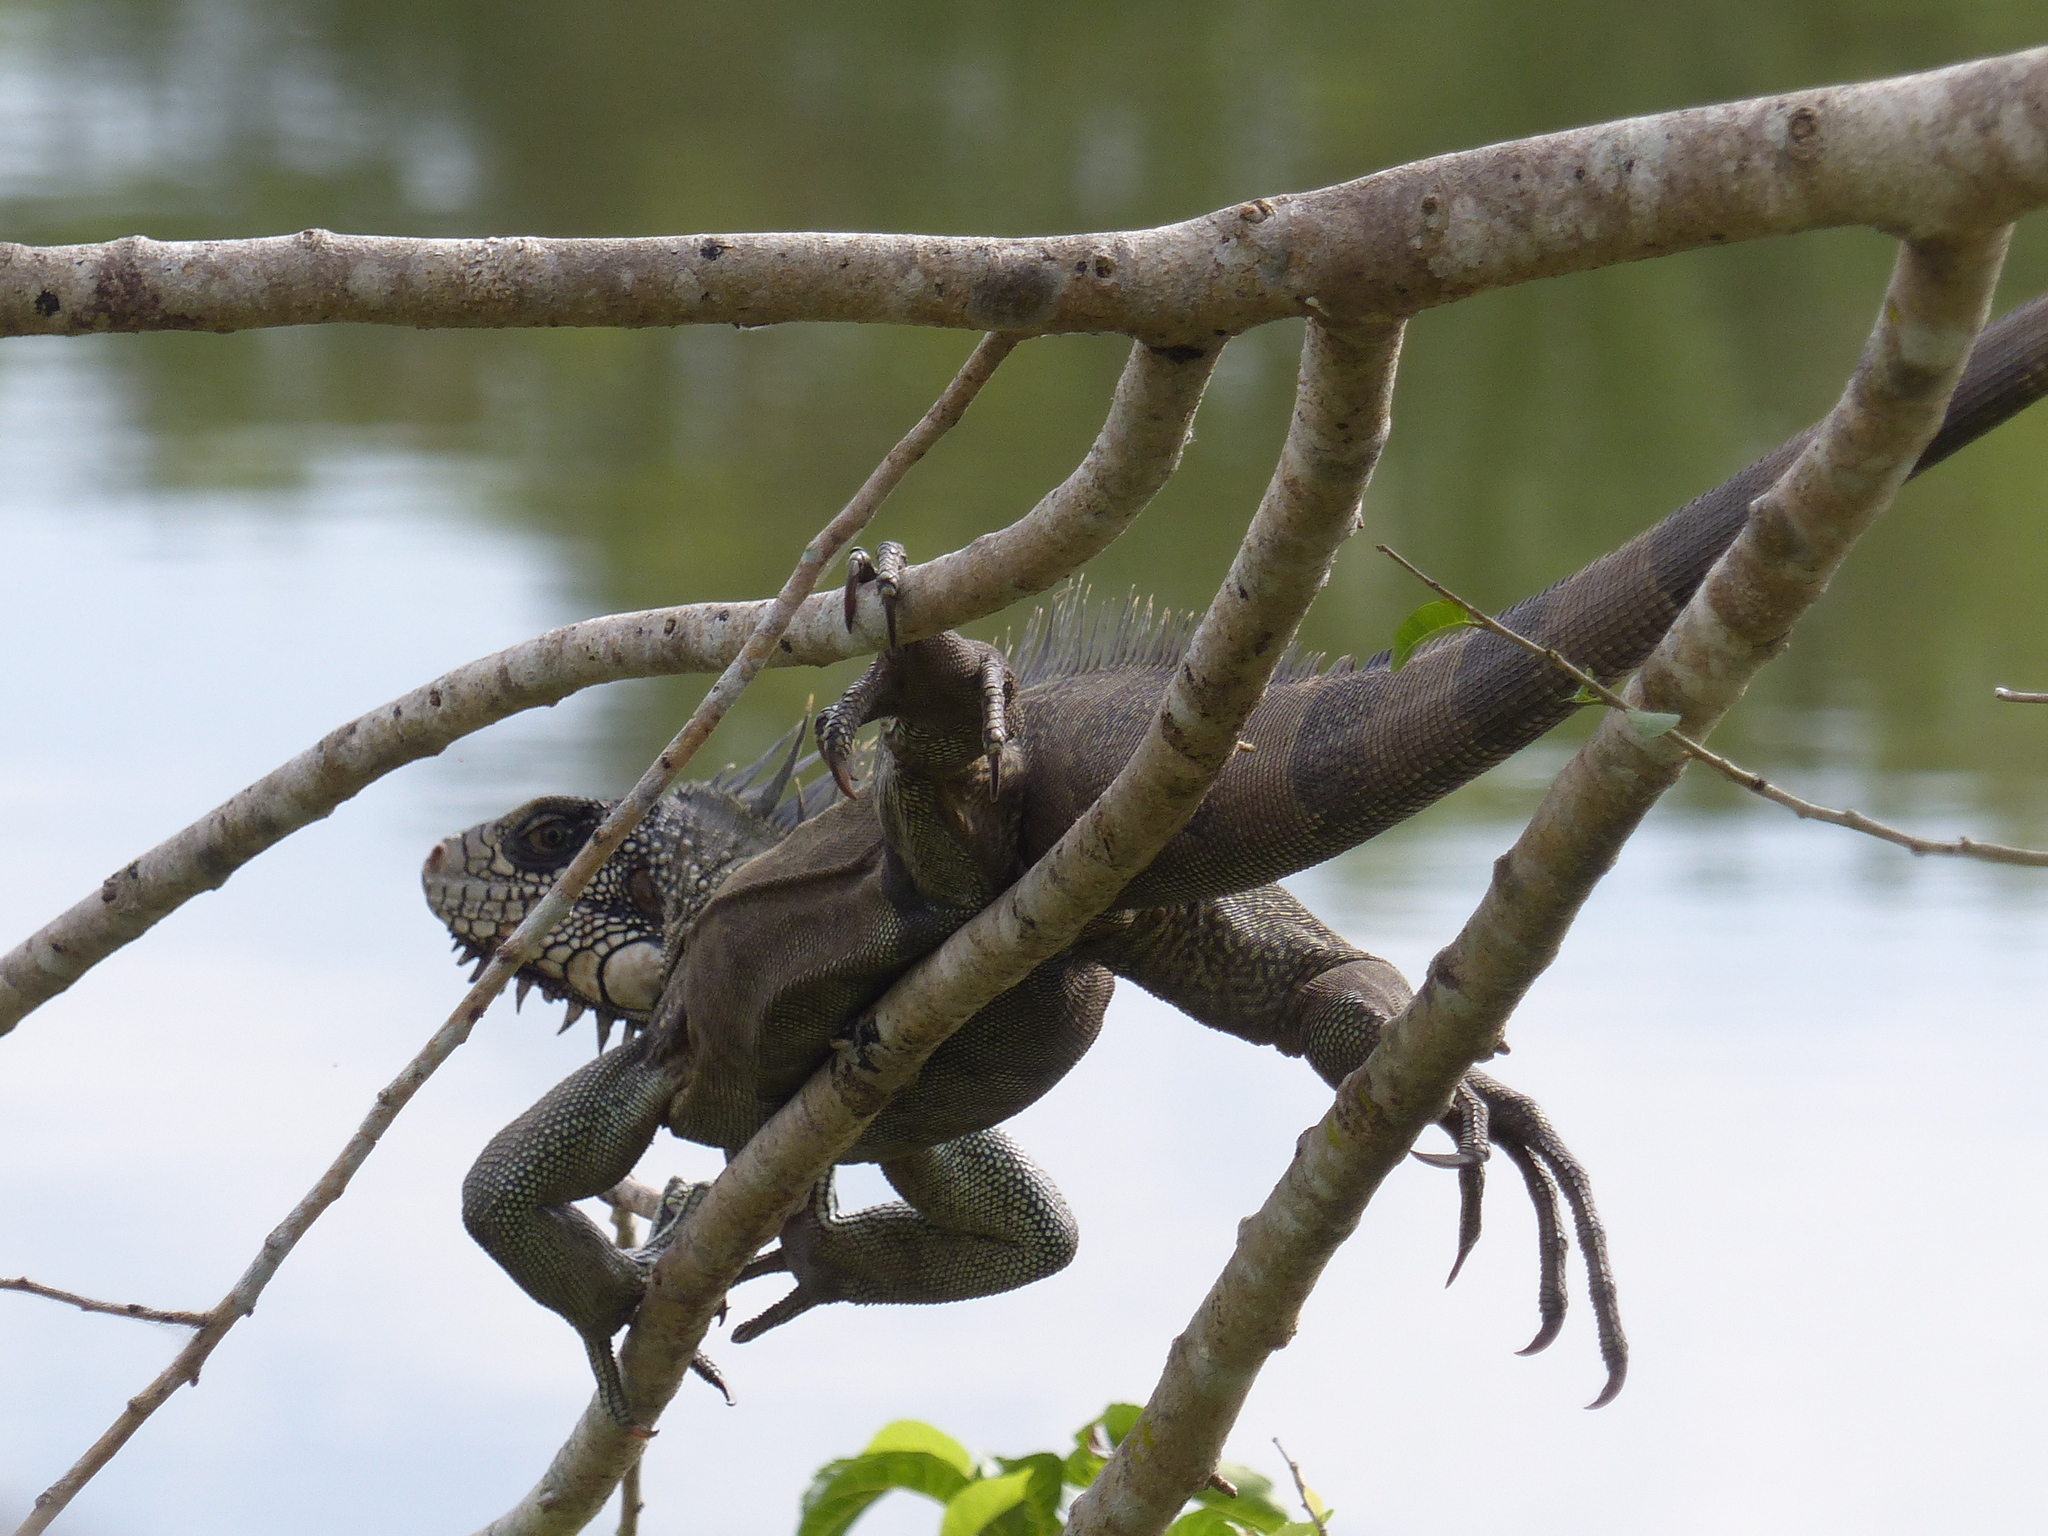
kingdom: Animalia
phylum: Chordata
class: Squamata
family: Iguanidae
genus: Iguana
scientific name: Iguana iguana
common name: Green iguana
